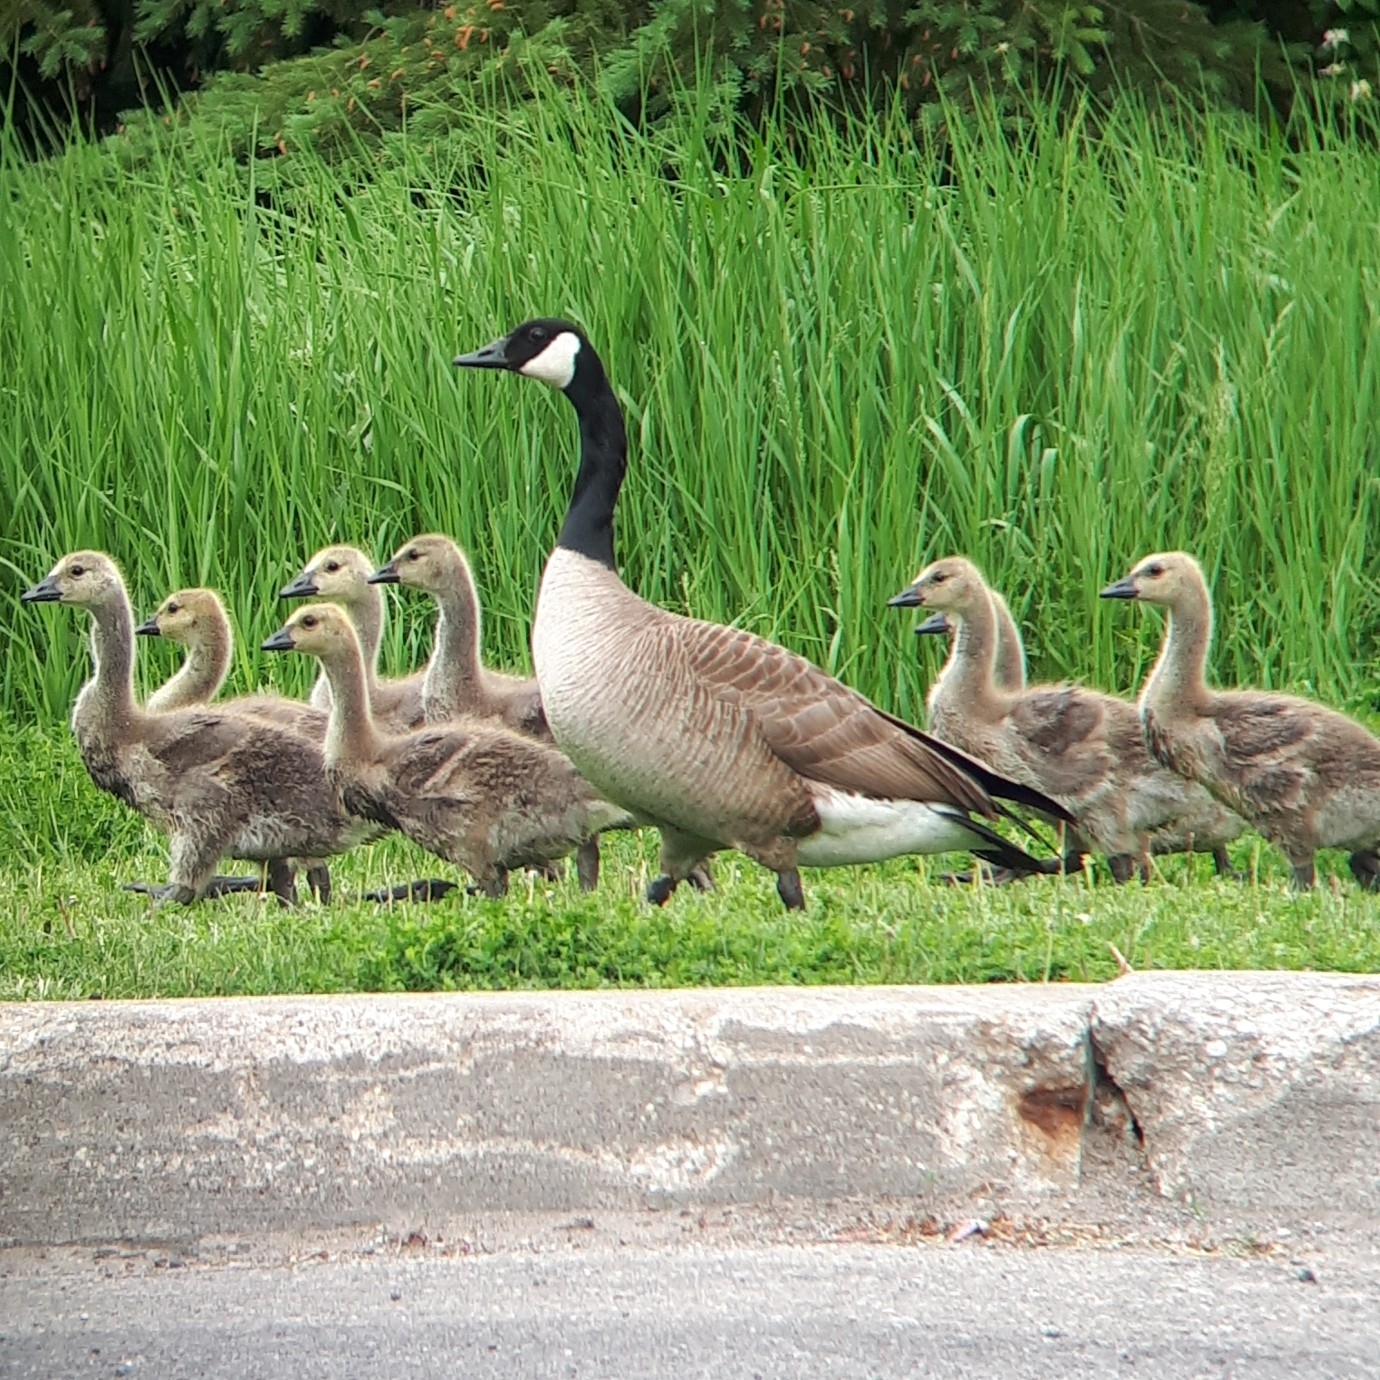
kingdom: Animalia
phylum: Chordata
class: Aves
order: Anseriformes
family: Anatidae
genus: Branta
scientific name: Branta canadensis
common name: Canada goose
